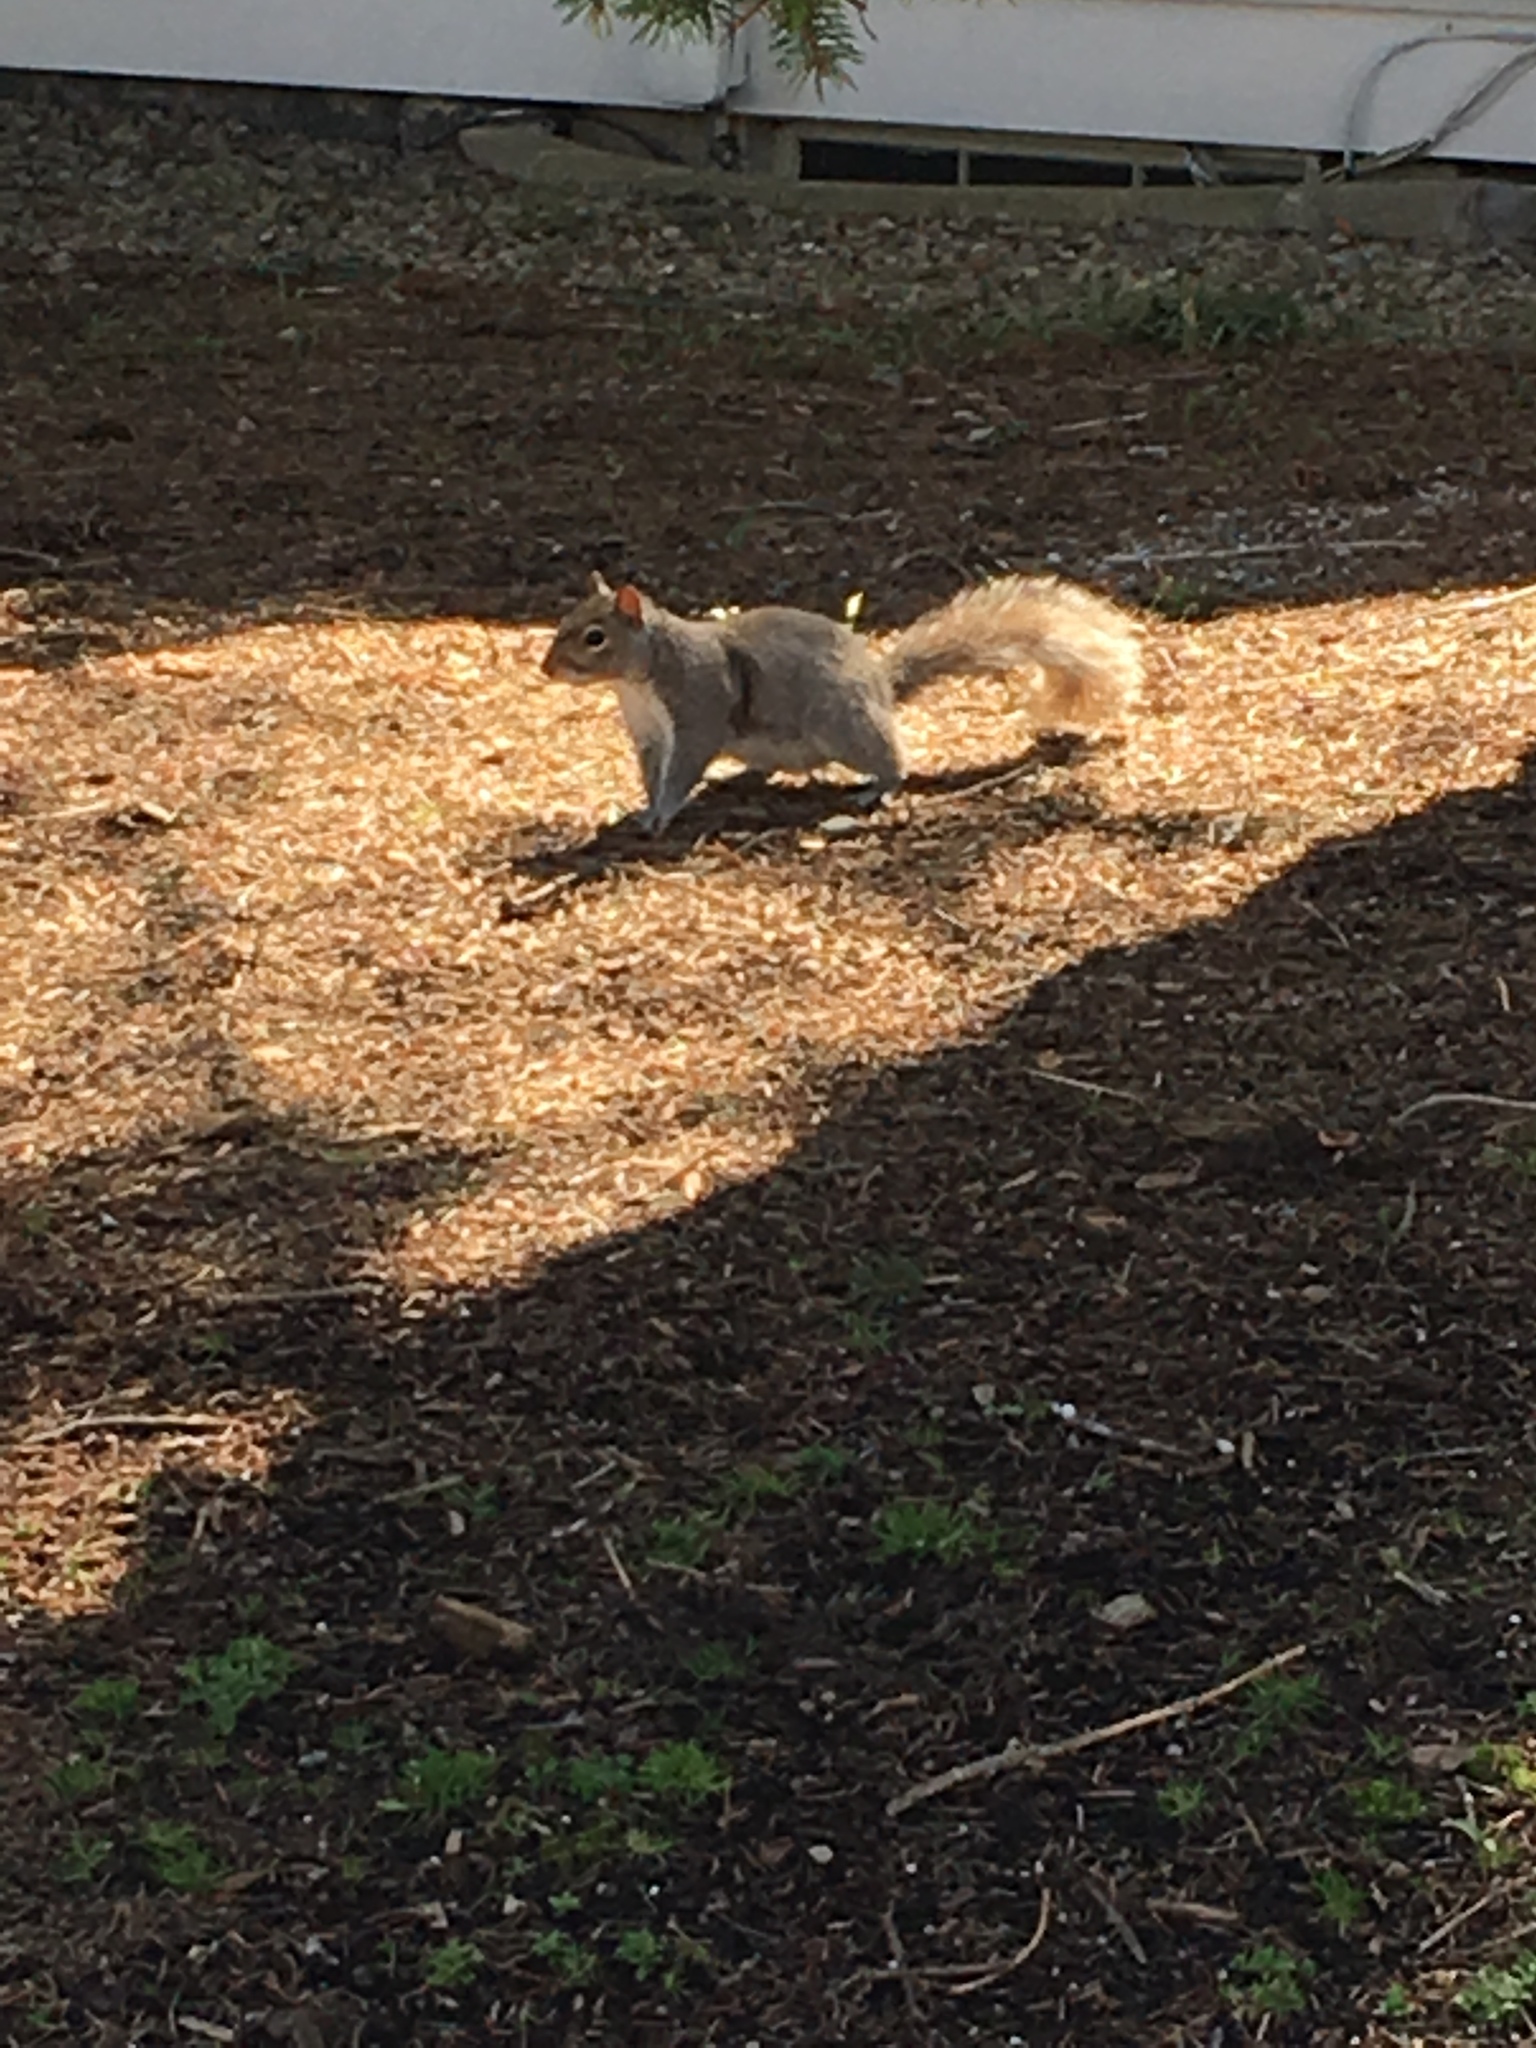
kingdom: Animalia
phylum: Chordata
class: Mammalia
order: Rodentia
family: Sciuridae
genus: Sciurus
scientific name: Sciurus carolinensis
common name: Eastern gray squirrel
